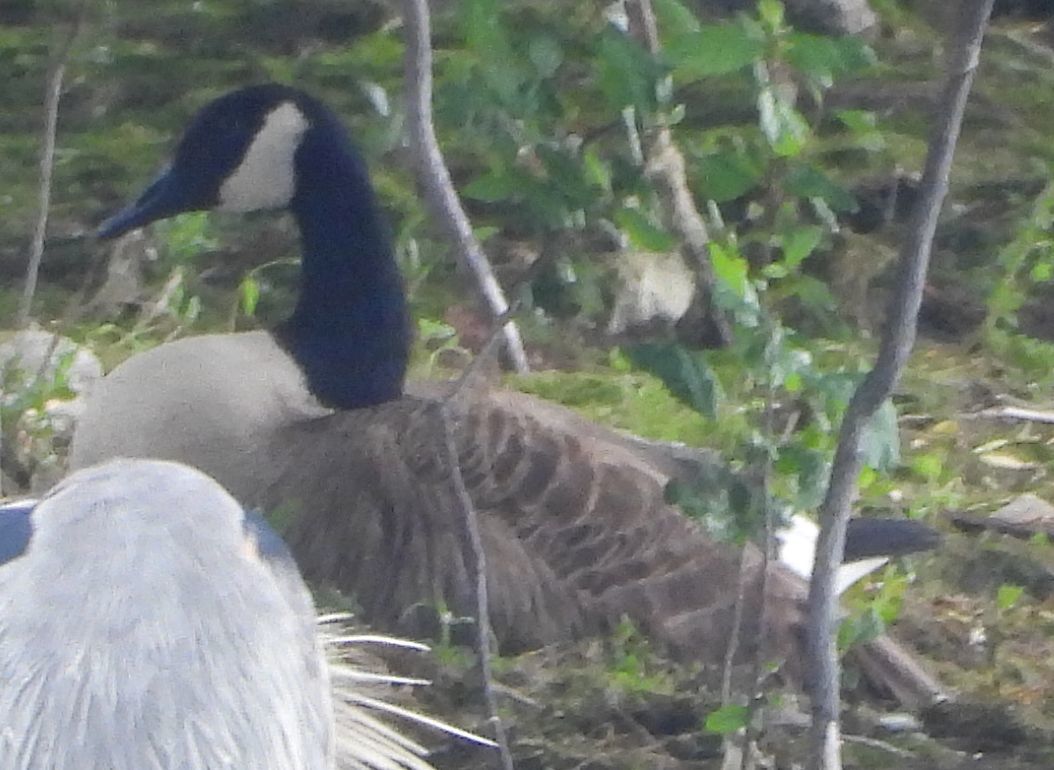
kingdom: Animalia
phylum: Chordata
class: Aves
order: Anseriformes
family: Anatidae
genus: Branta
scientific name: Branta canadensis
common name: Canada goose
